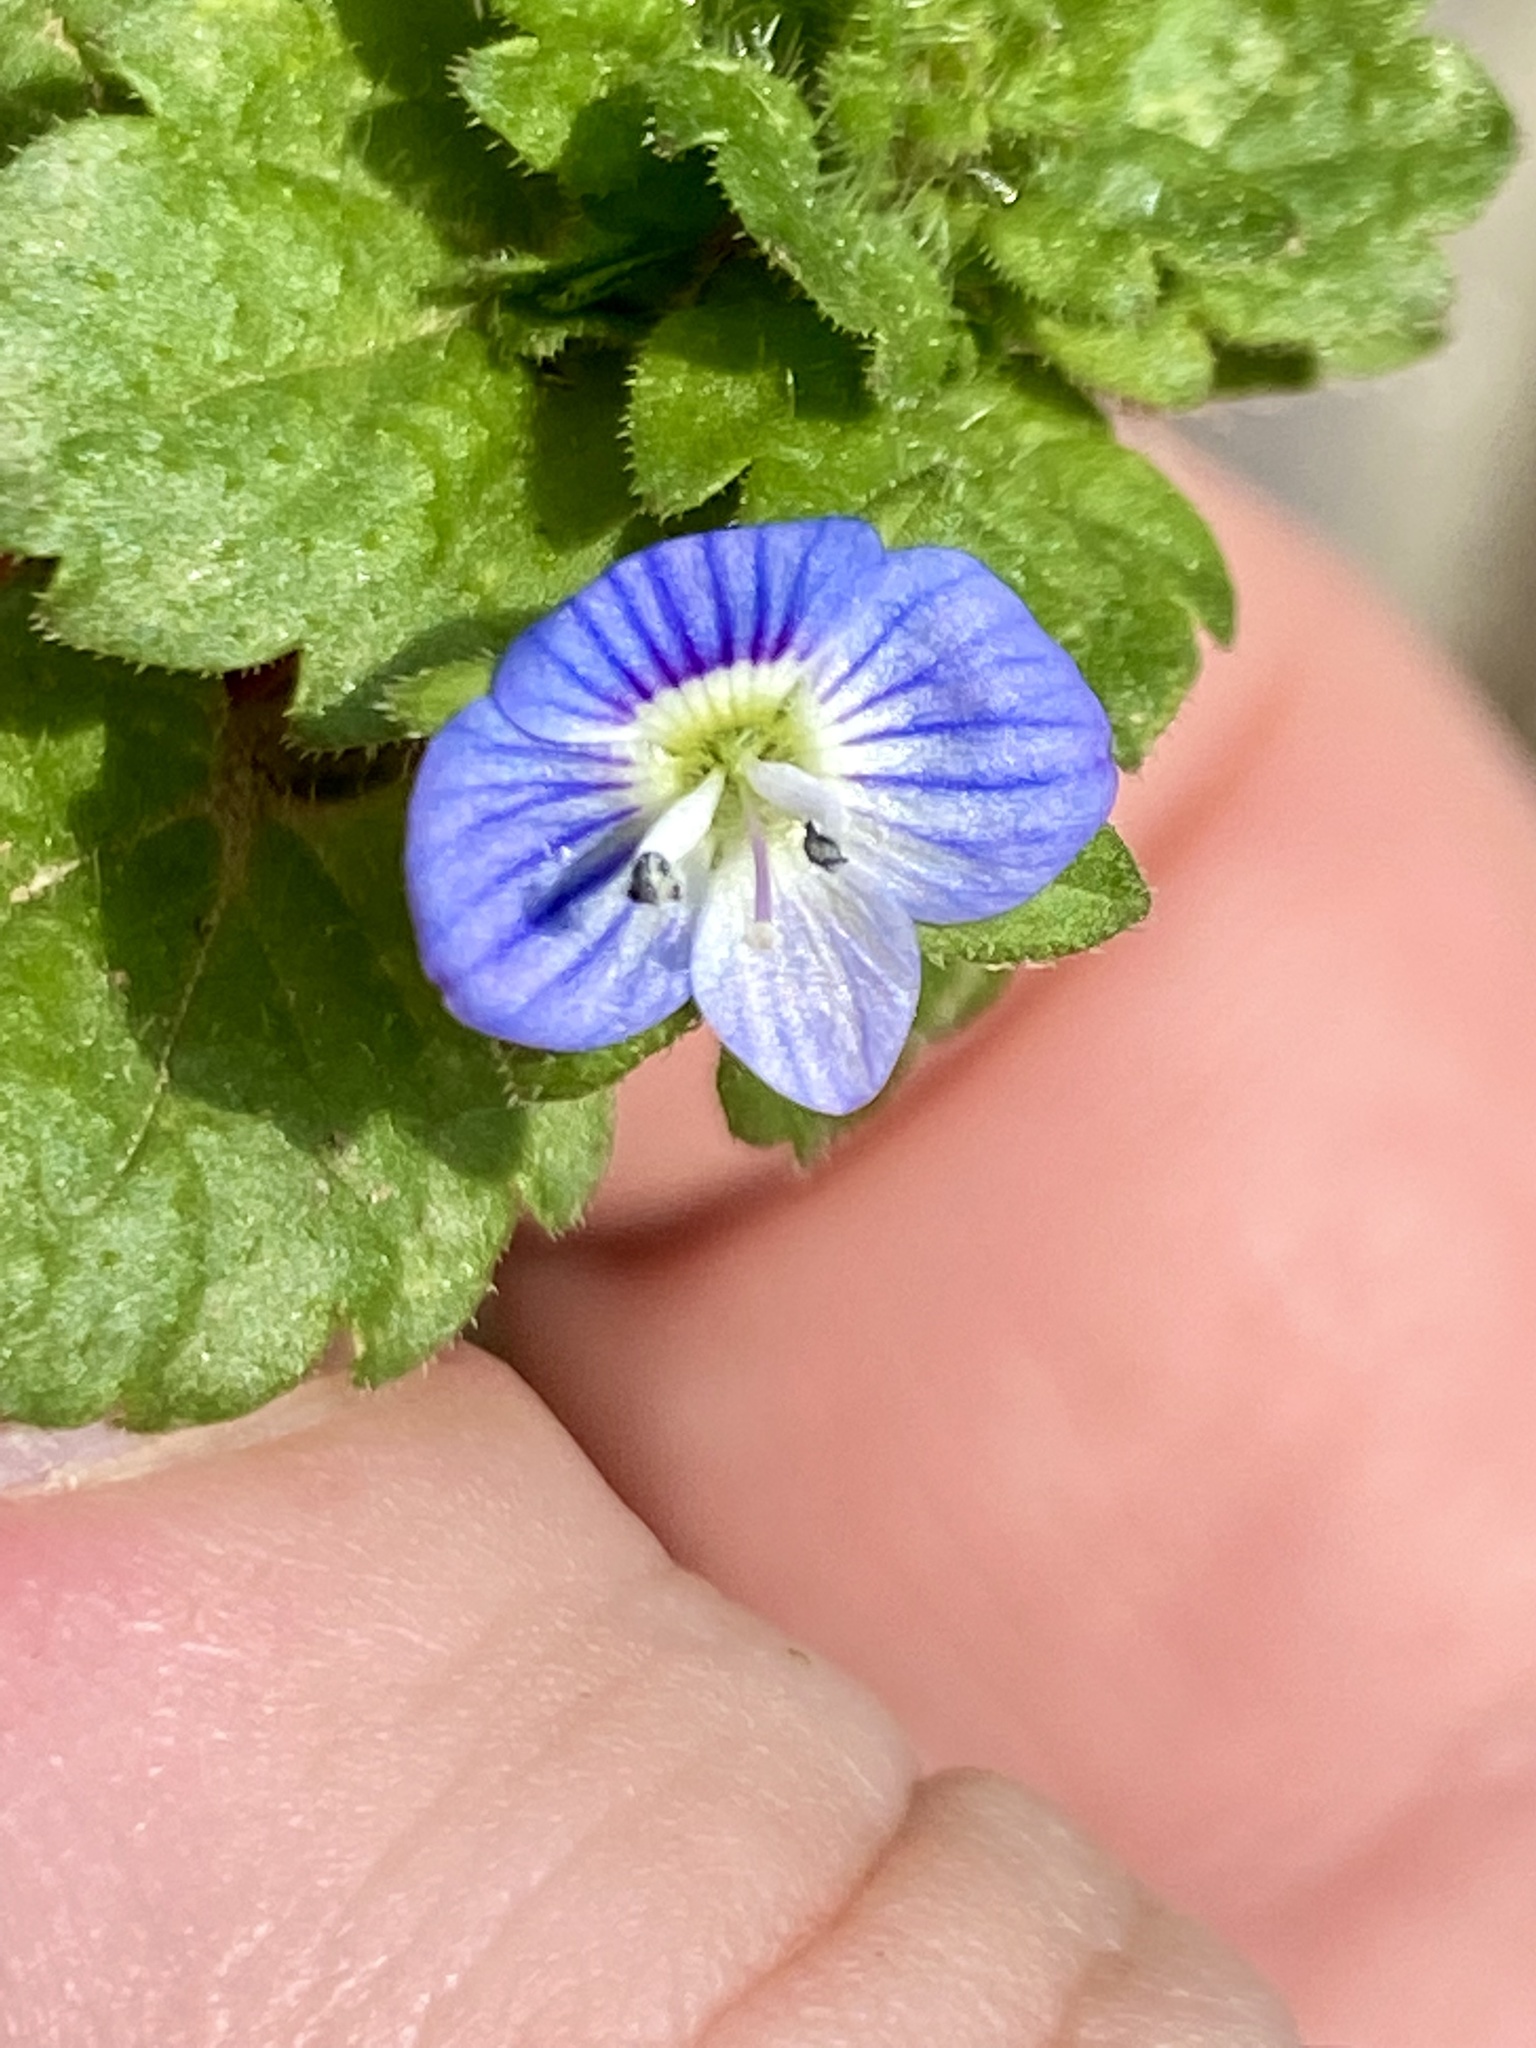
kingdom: Plantae
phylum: Tracheophyta
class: Magnoliopsida
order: Lamiales
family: Plantaginaceae
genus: Veronica
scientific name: Veronica persica
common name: Common field-speedwell
